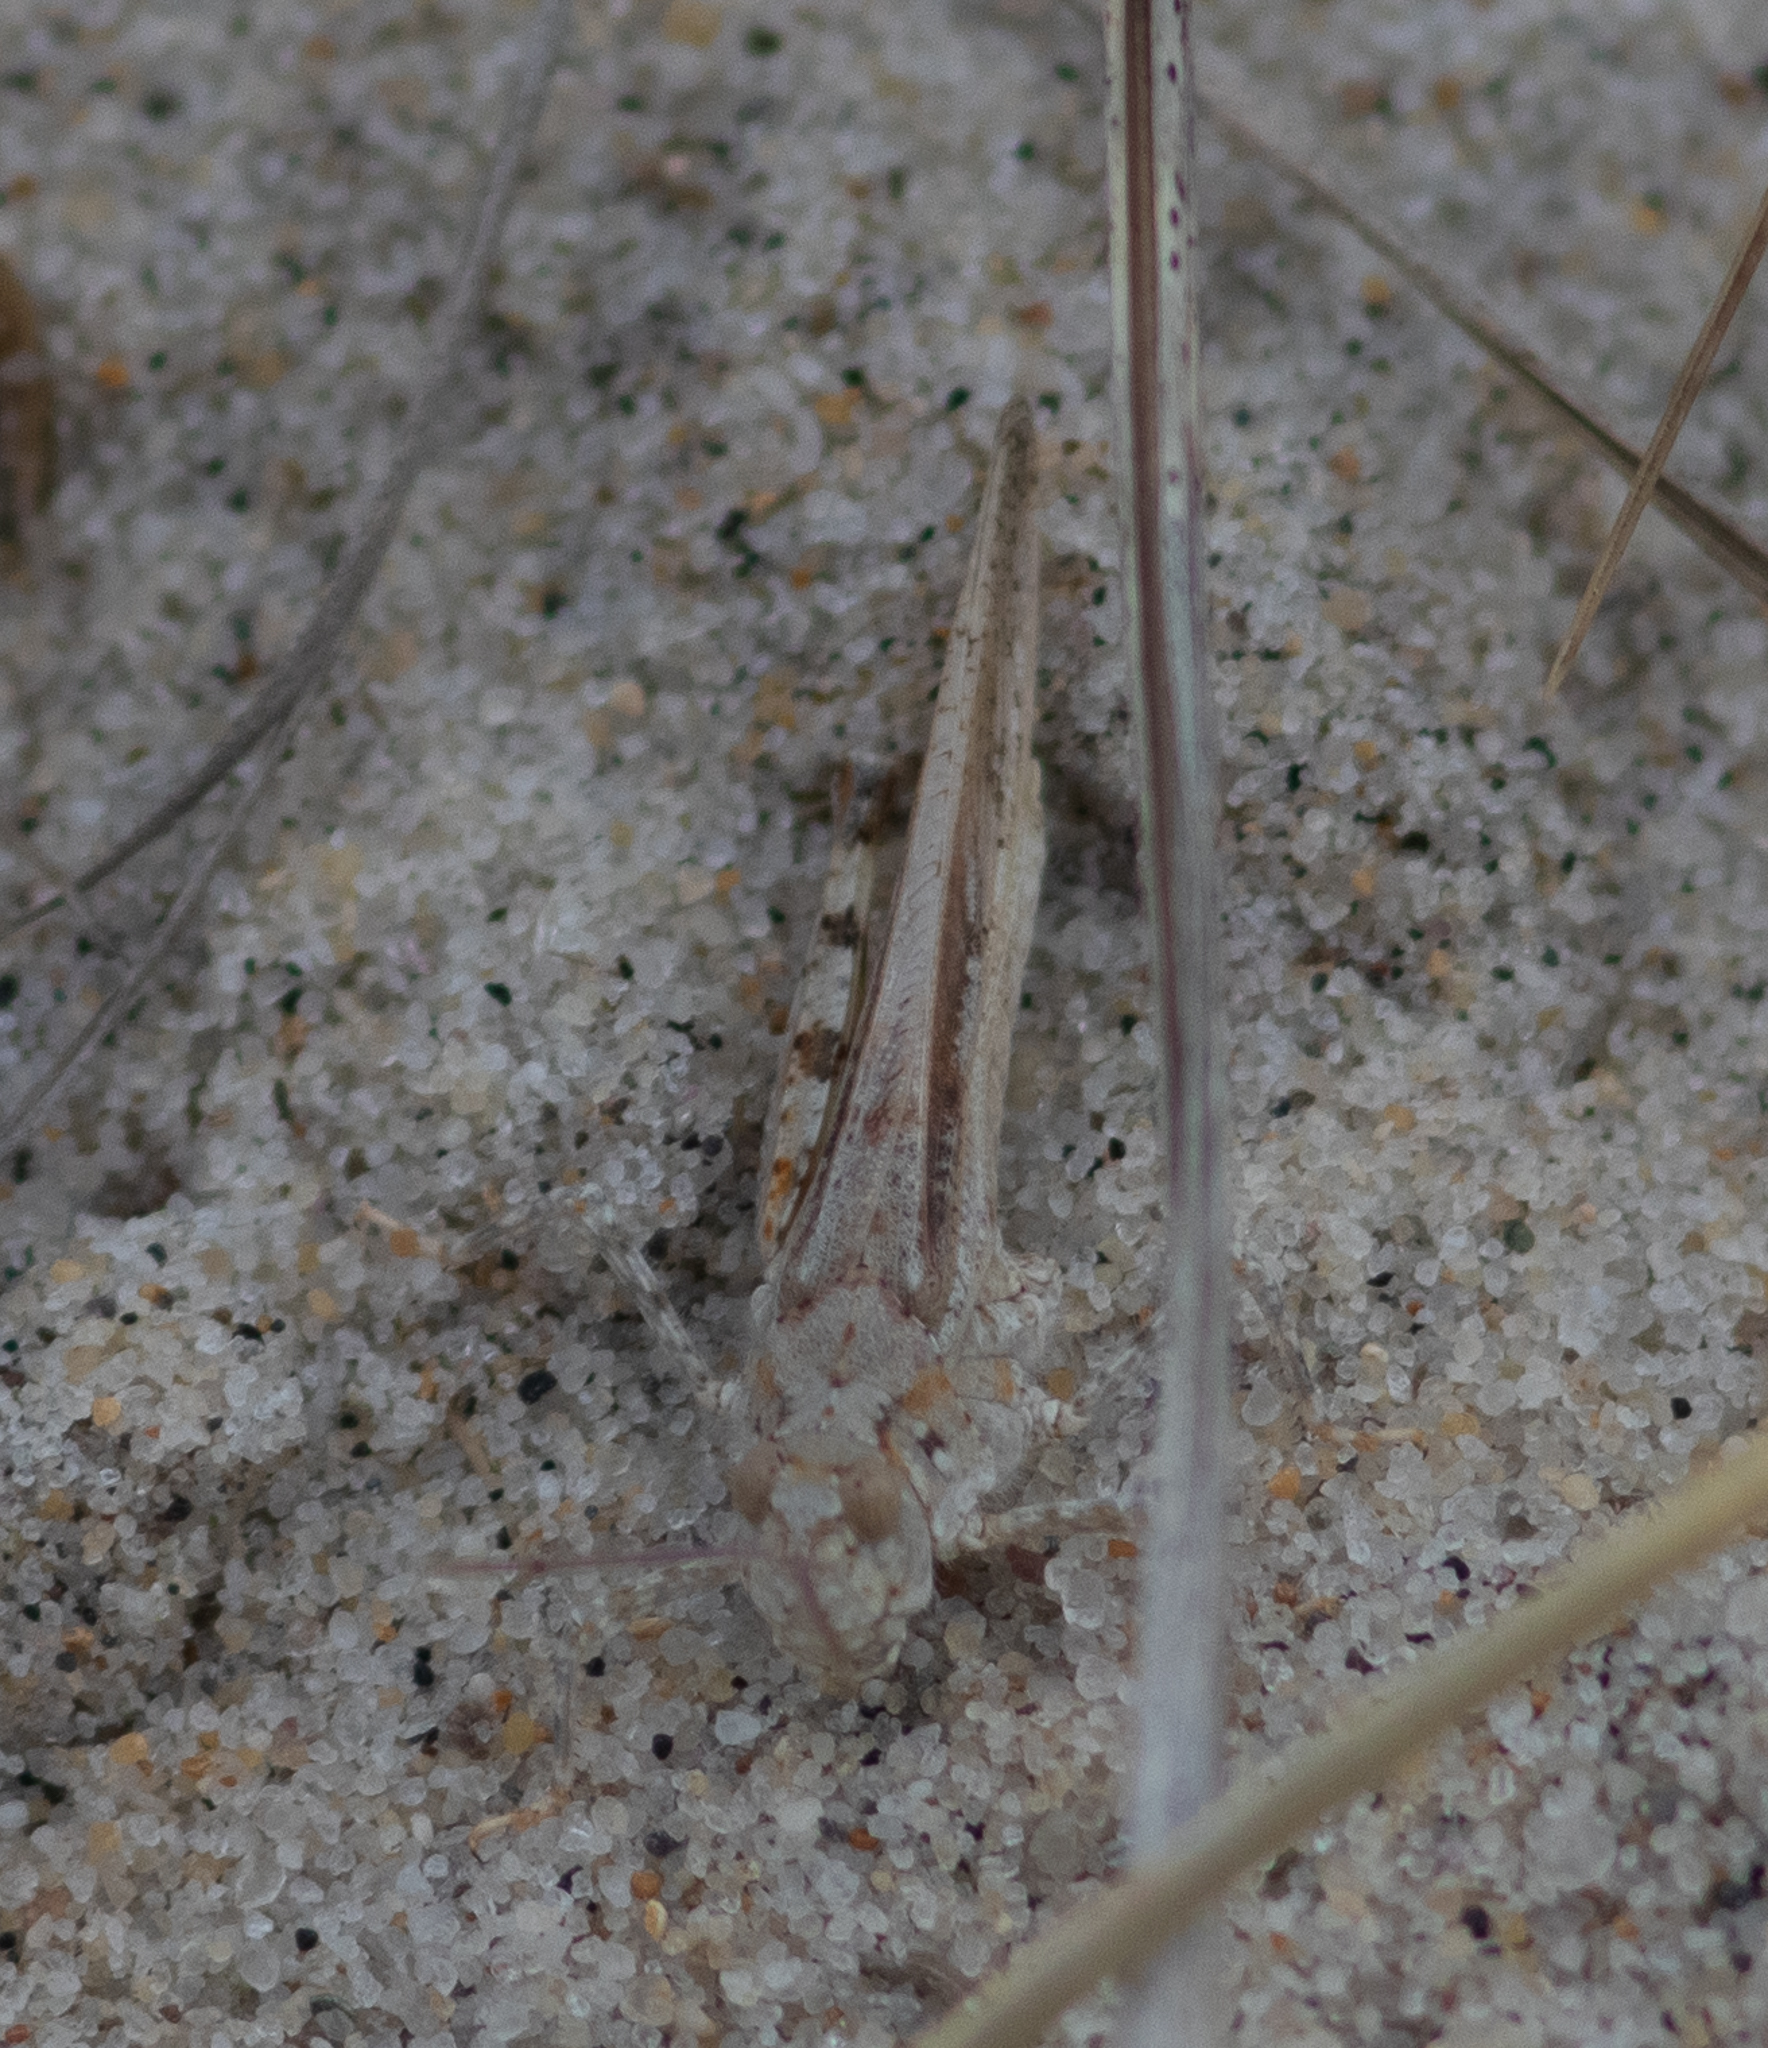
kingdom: Animalia
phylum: Arthropoda
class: Insecta
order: Orthoptera
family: Acrididae
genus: Trimerotropis
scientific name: Trimerotropis maritima
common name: Seaside locust
